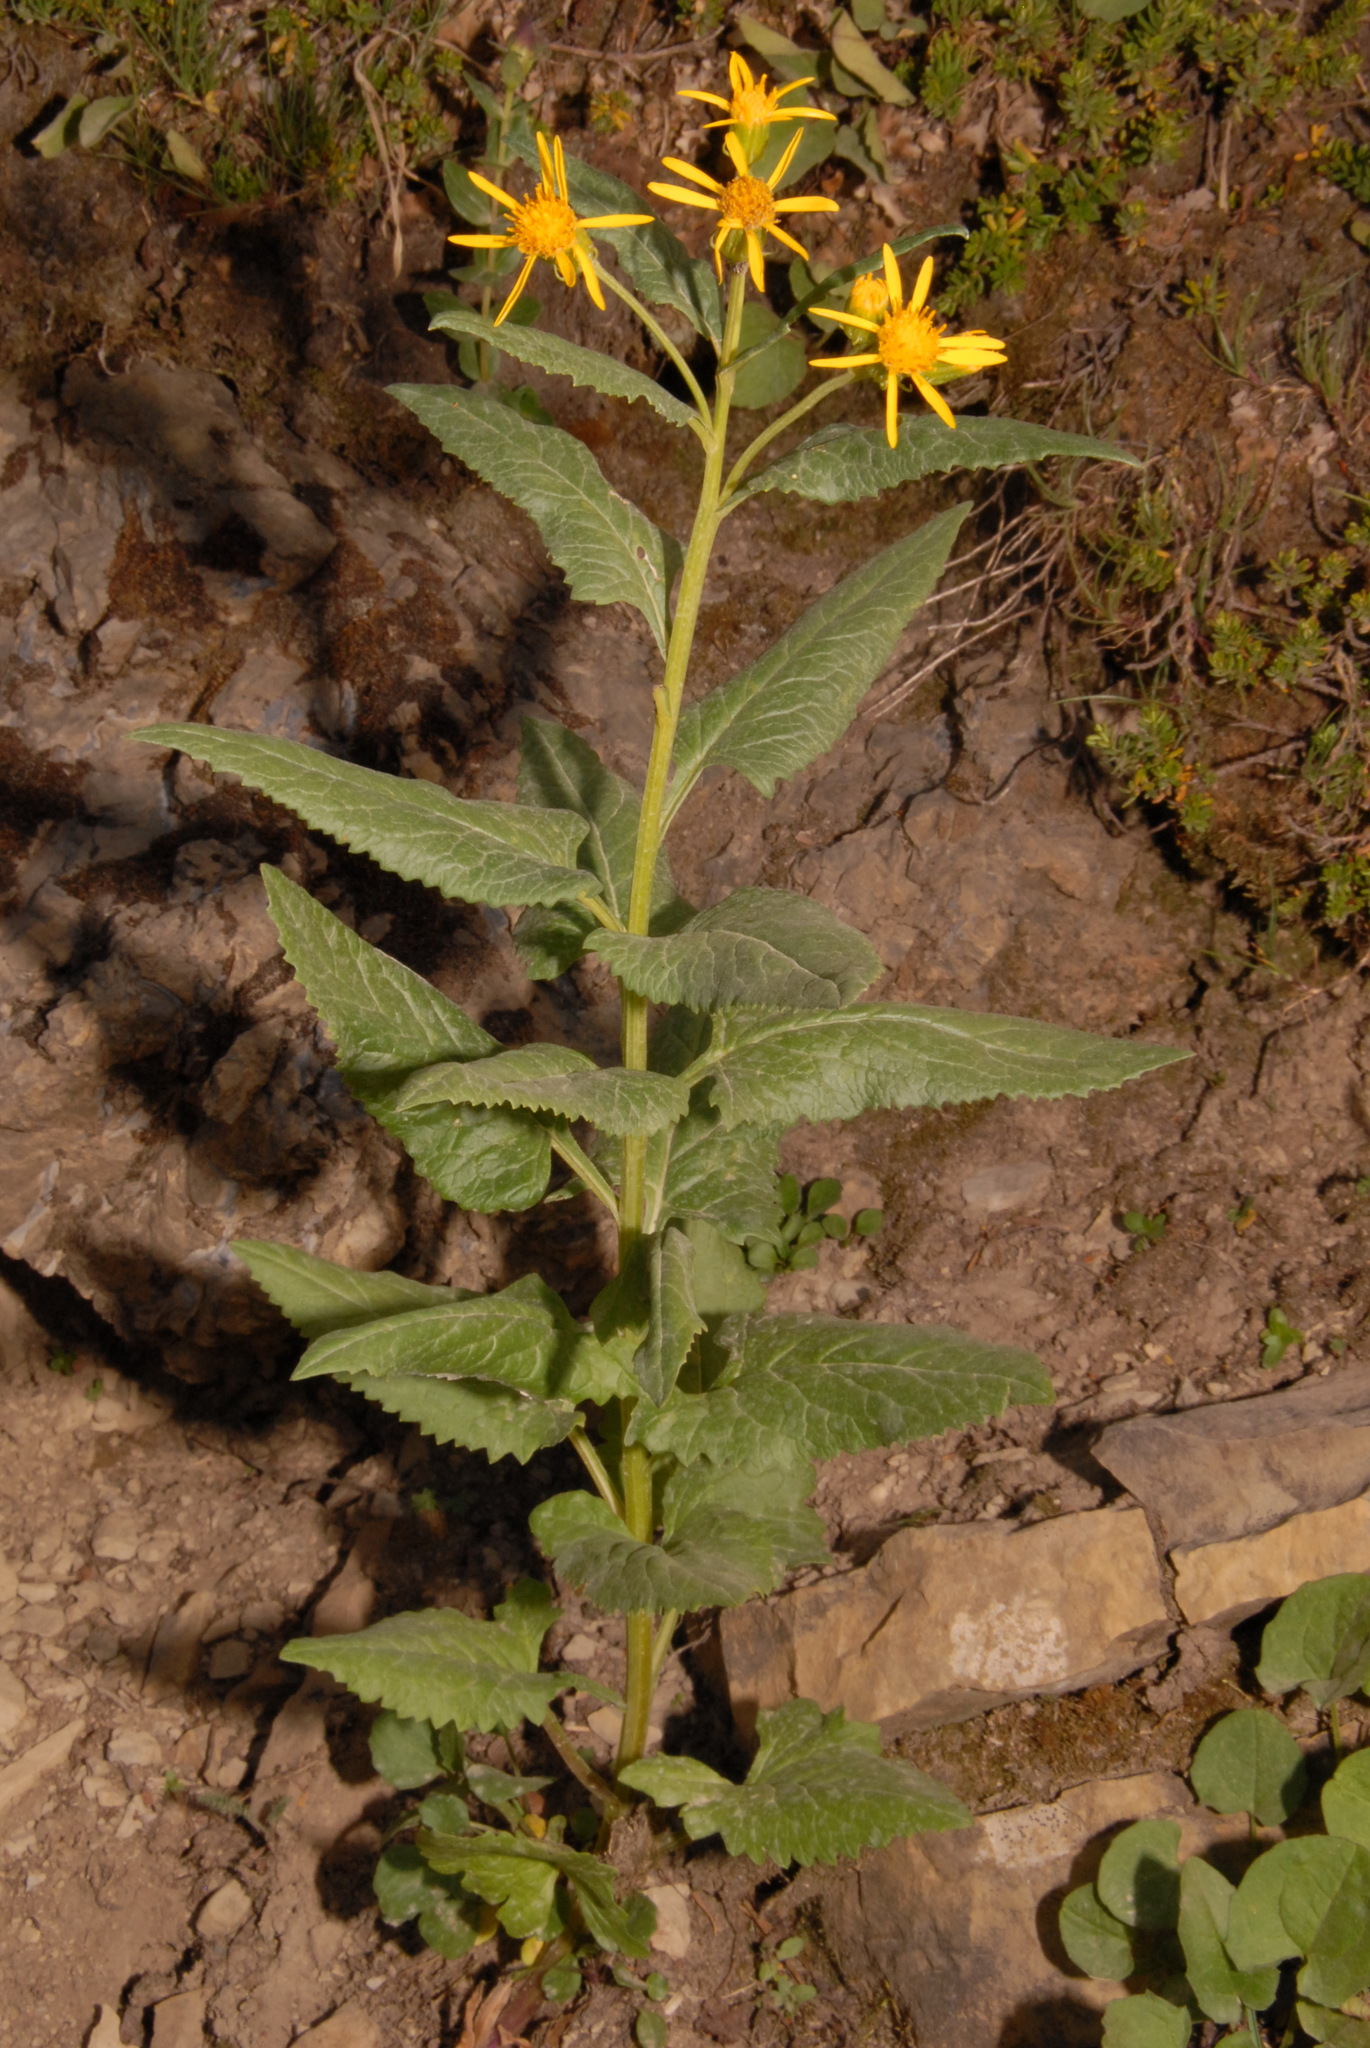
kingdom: Plantae
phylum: Tracheophyta
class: Magnoliopsida
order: Asterales
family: Asteraceae
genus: Senecio
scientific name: Senecio triangularis
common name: Arrowleaf butterweed
